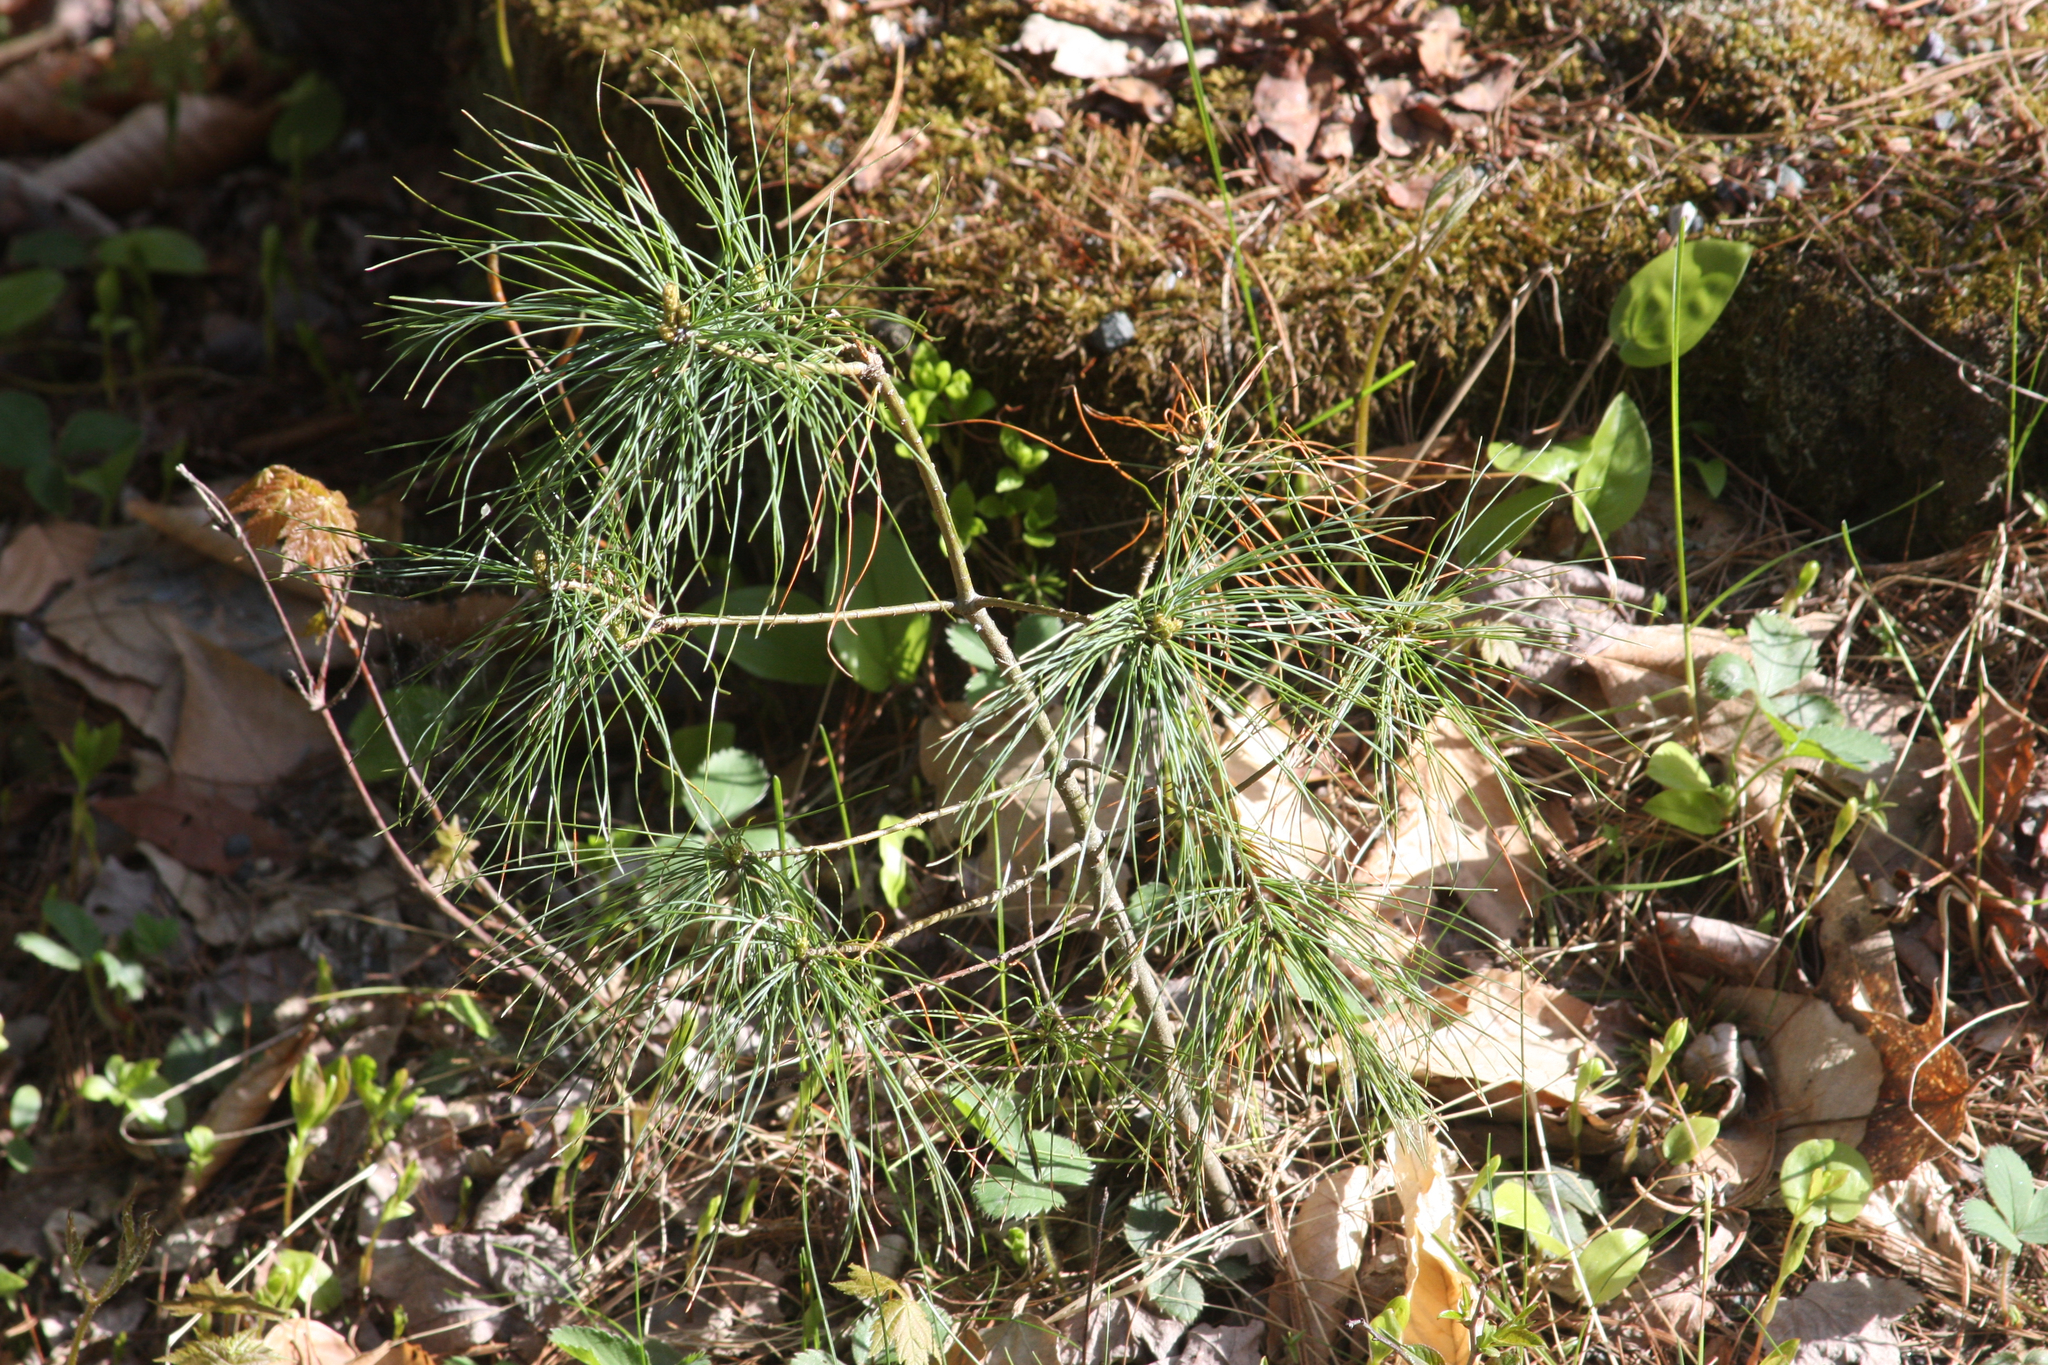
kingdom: Plantae
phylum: Tracheophyta
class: Pinopsida
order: Pinales
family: Pinaceae
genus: Pinus
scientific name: Pinus strobus
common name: Weymouth pine
